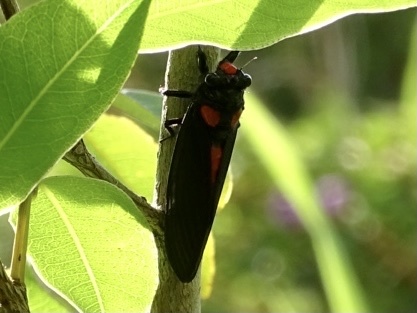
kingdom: Animalia
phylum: Arthropoda
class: Insecta
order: Hemiptera
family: Cicadidae
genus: Huechys
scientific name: Huechys sanguinea
